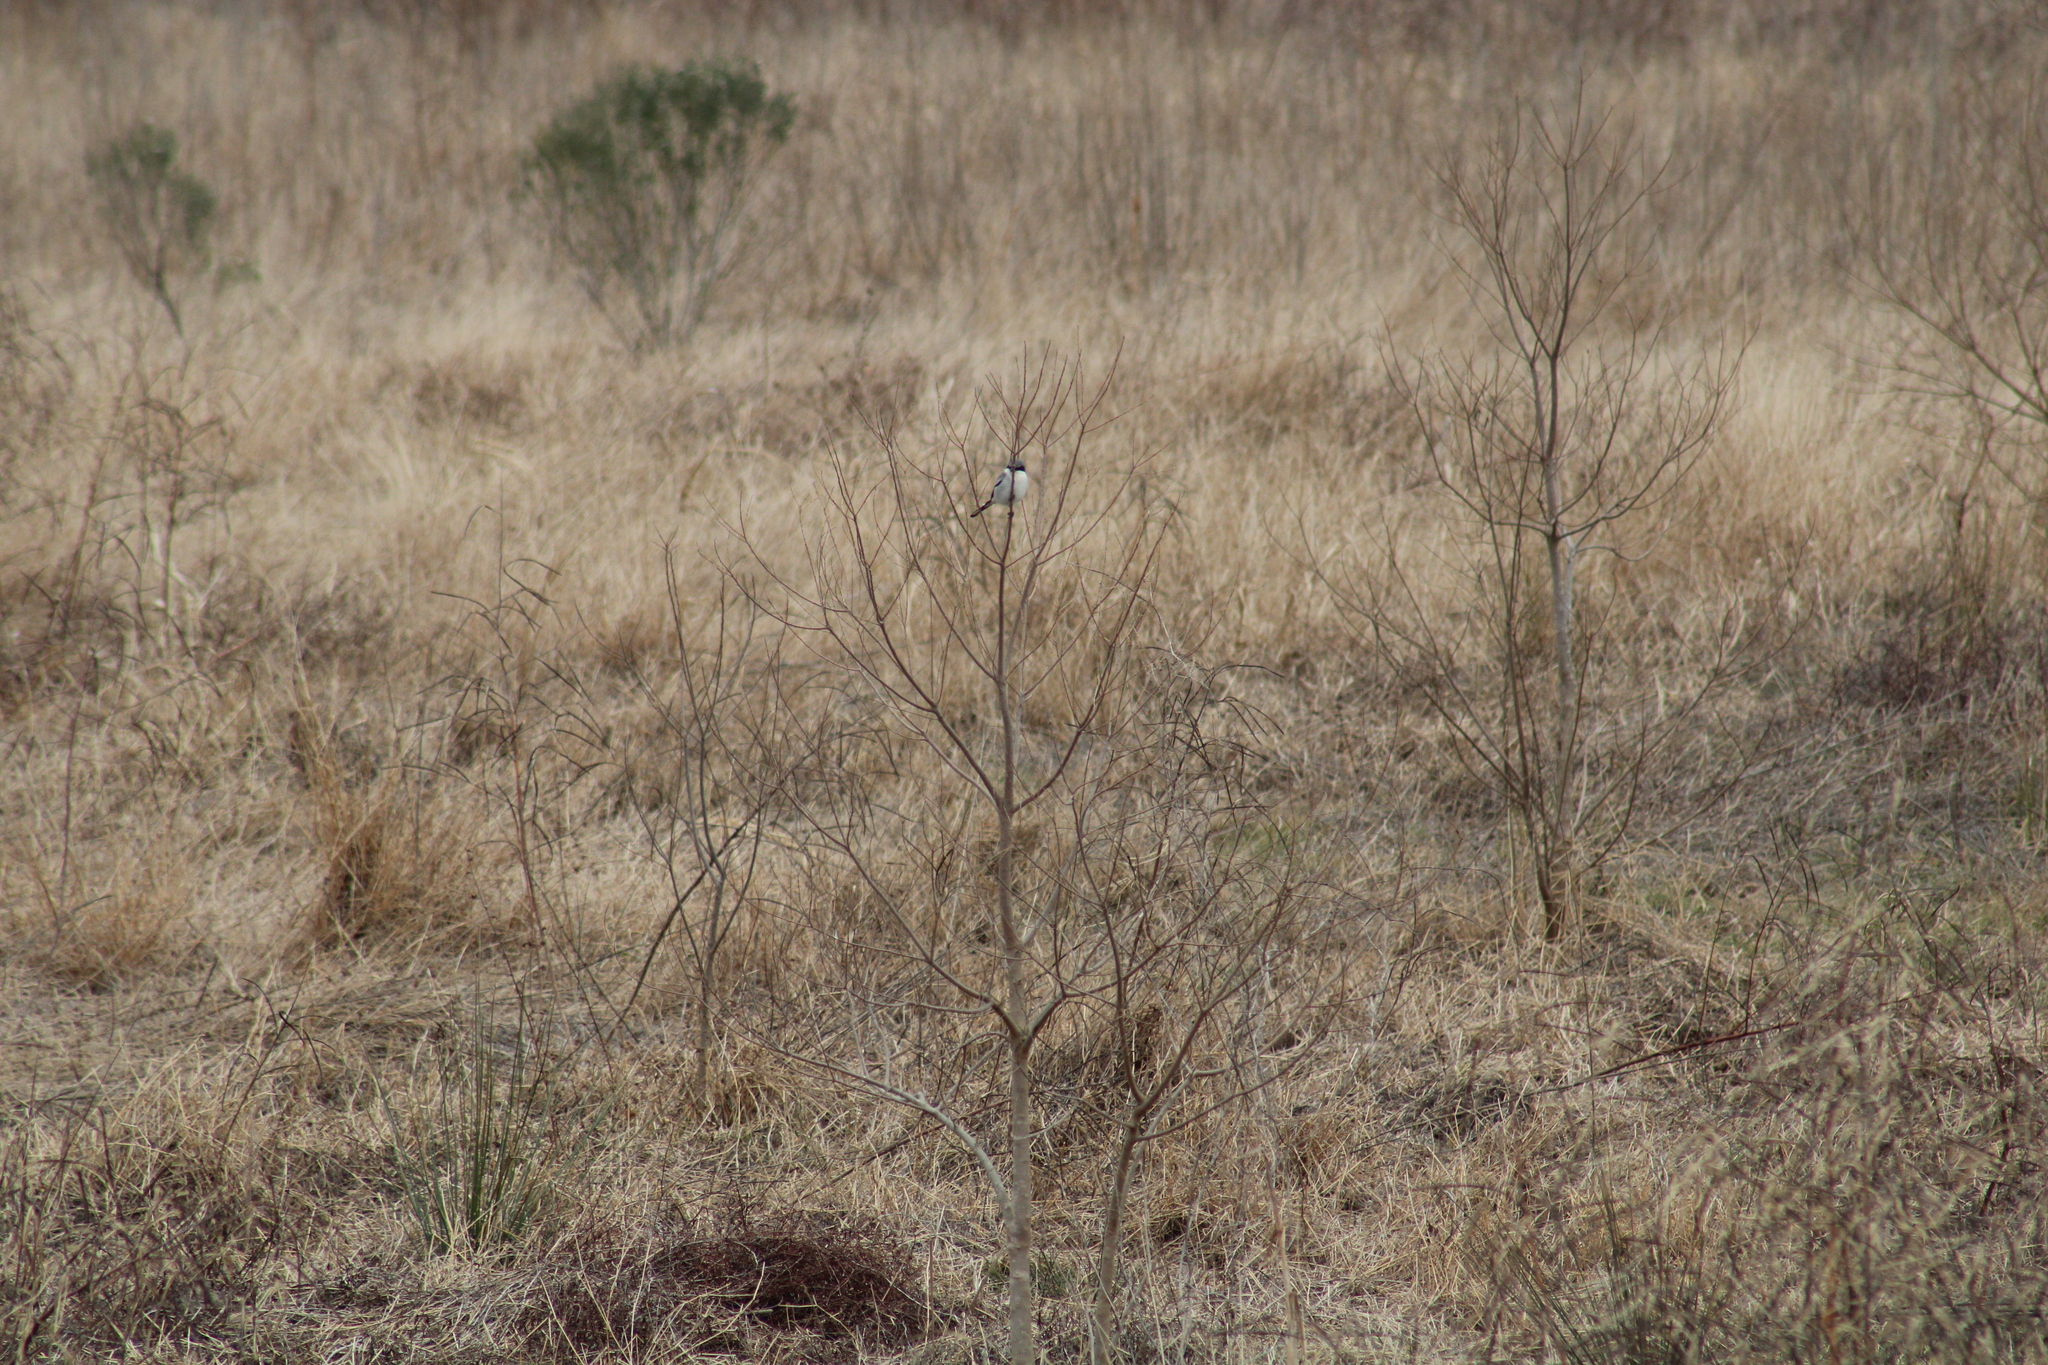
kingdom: Animalia
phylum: Chordata
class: Aves
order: Passeriformes
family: Laniidae
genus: Lanius
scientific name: Lanius ludovicianus
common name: Loggerhead shrike
